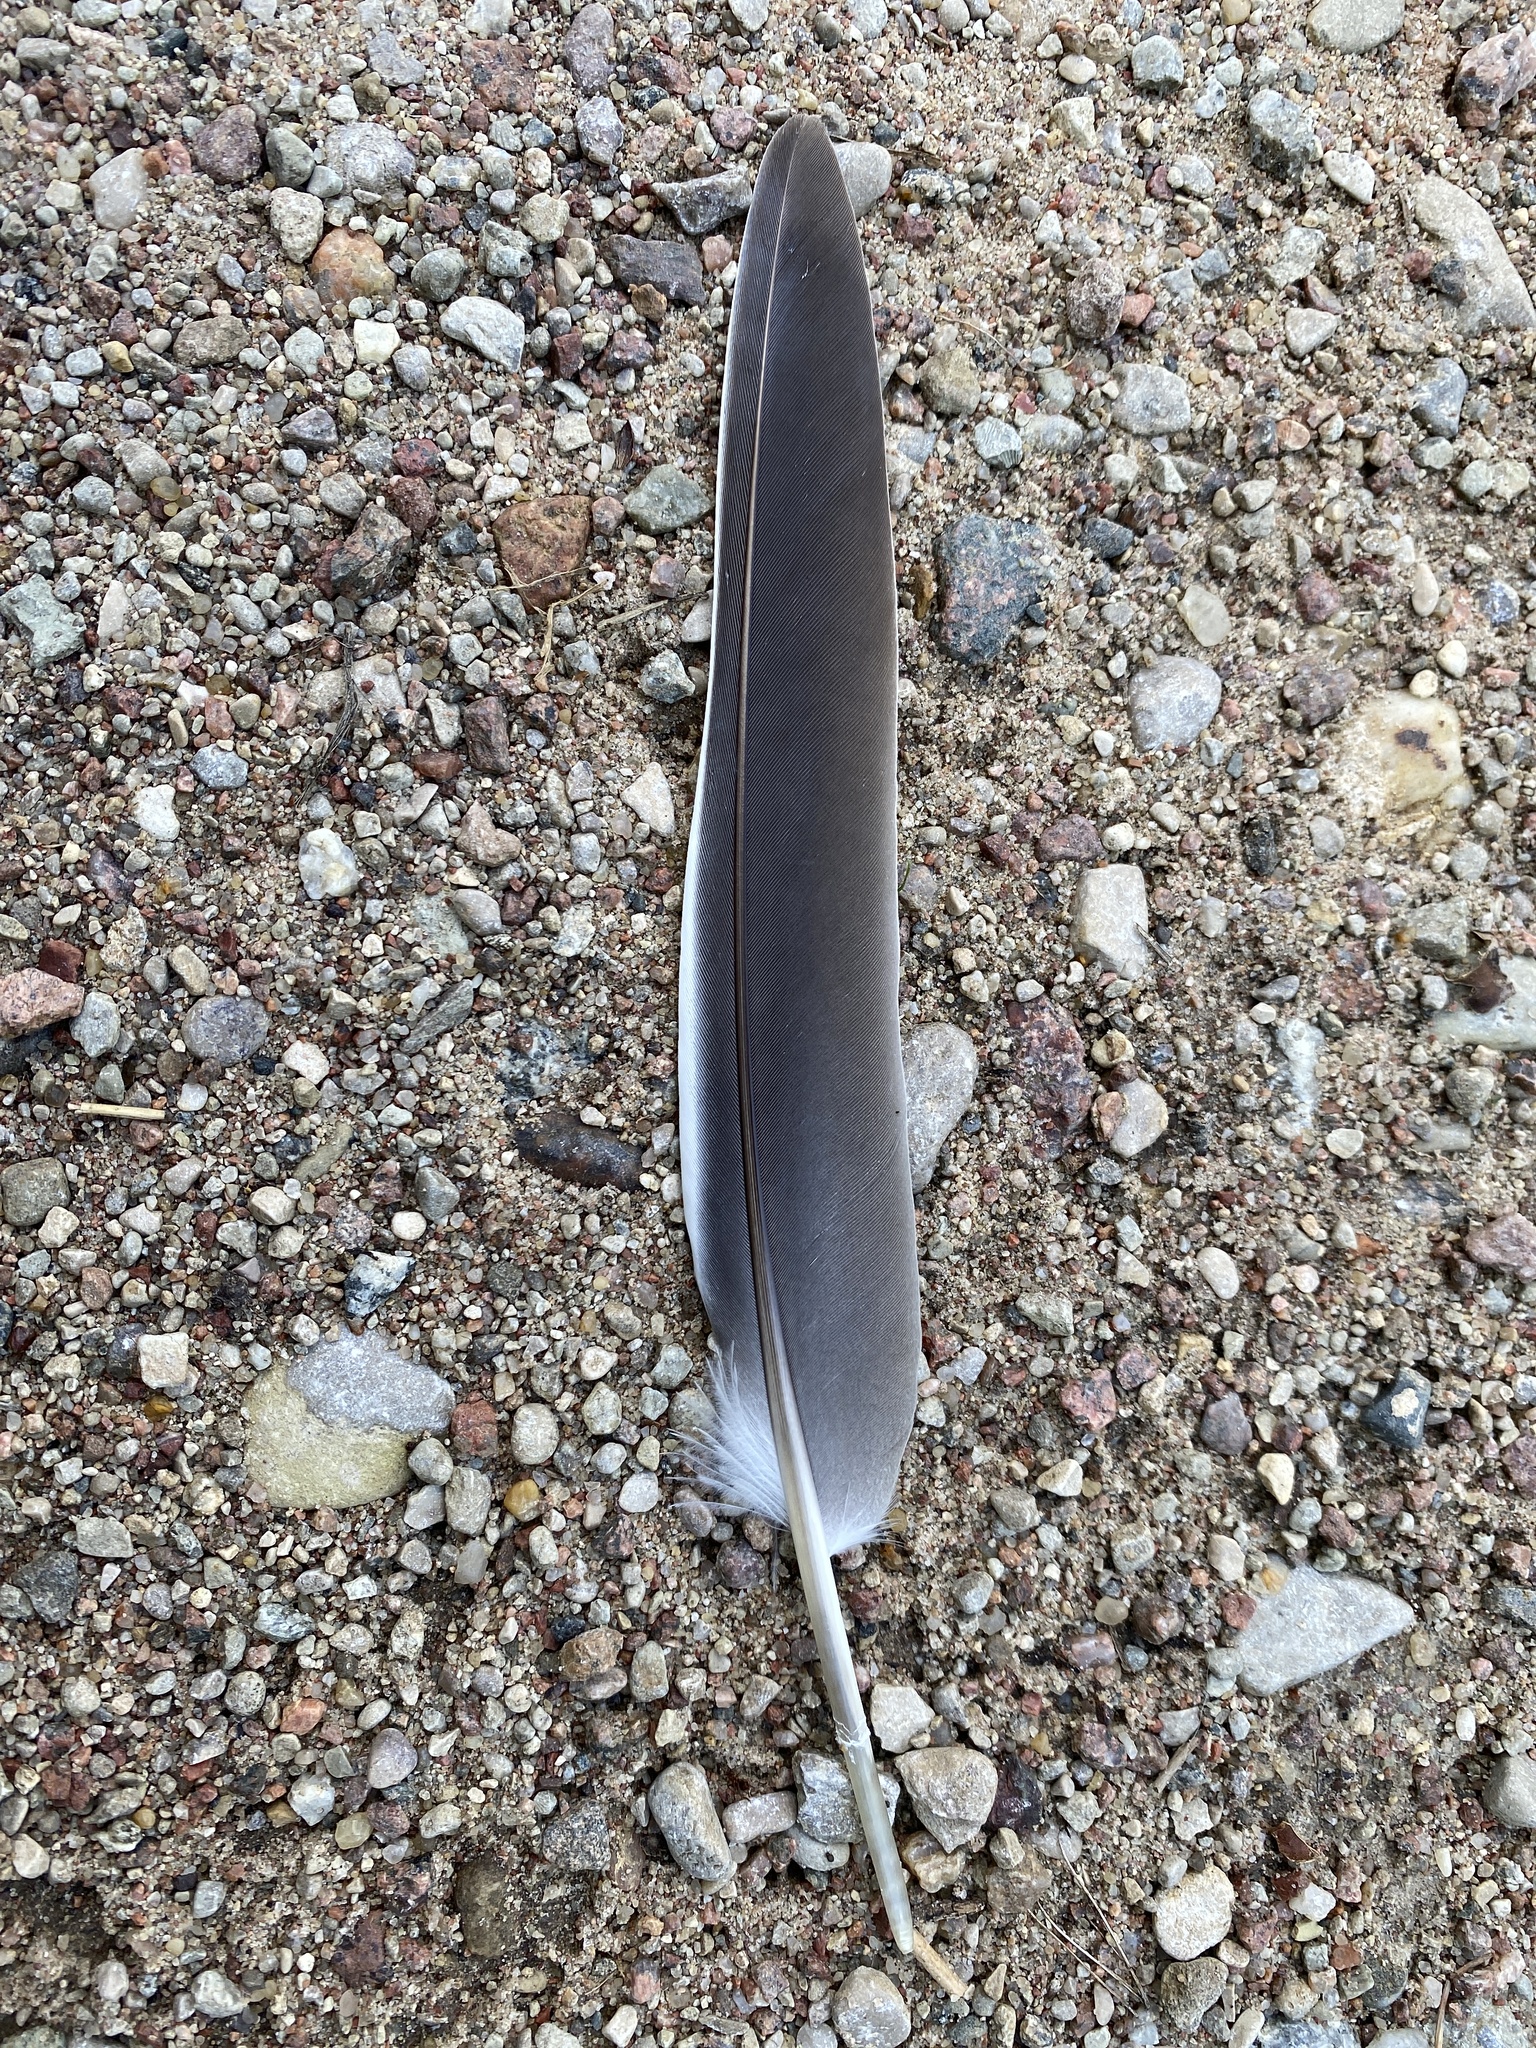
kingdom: Animalia
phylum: Chordata
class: Aves
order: Columbiformes
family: Columbidae
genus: Columba
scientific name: Columba palumbus
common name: Common wood pigeon
